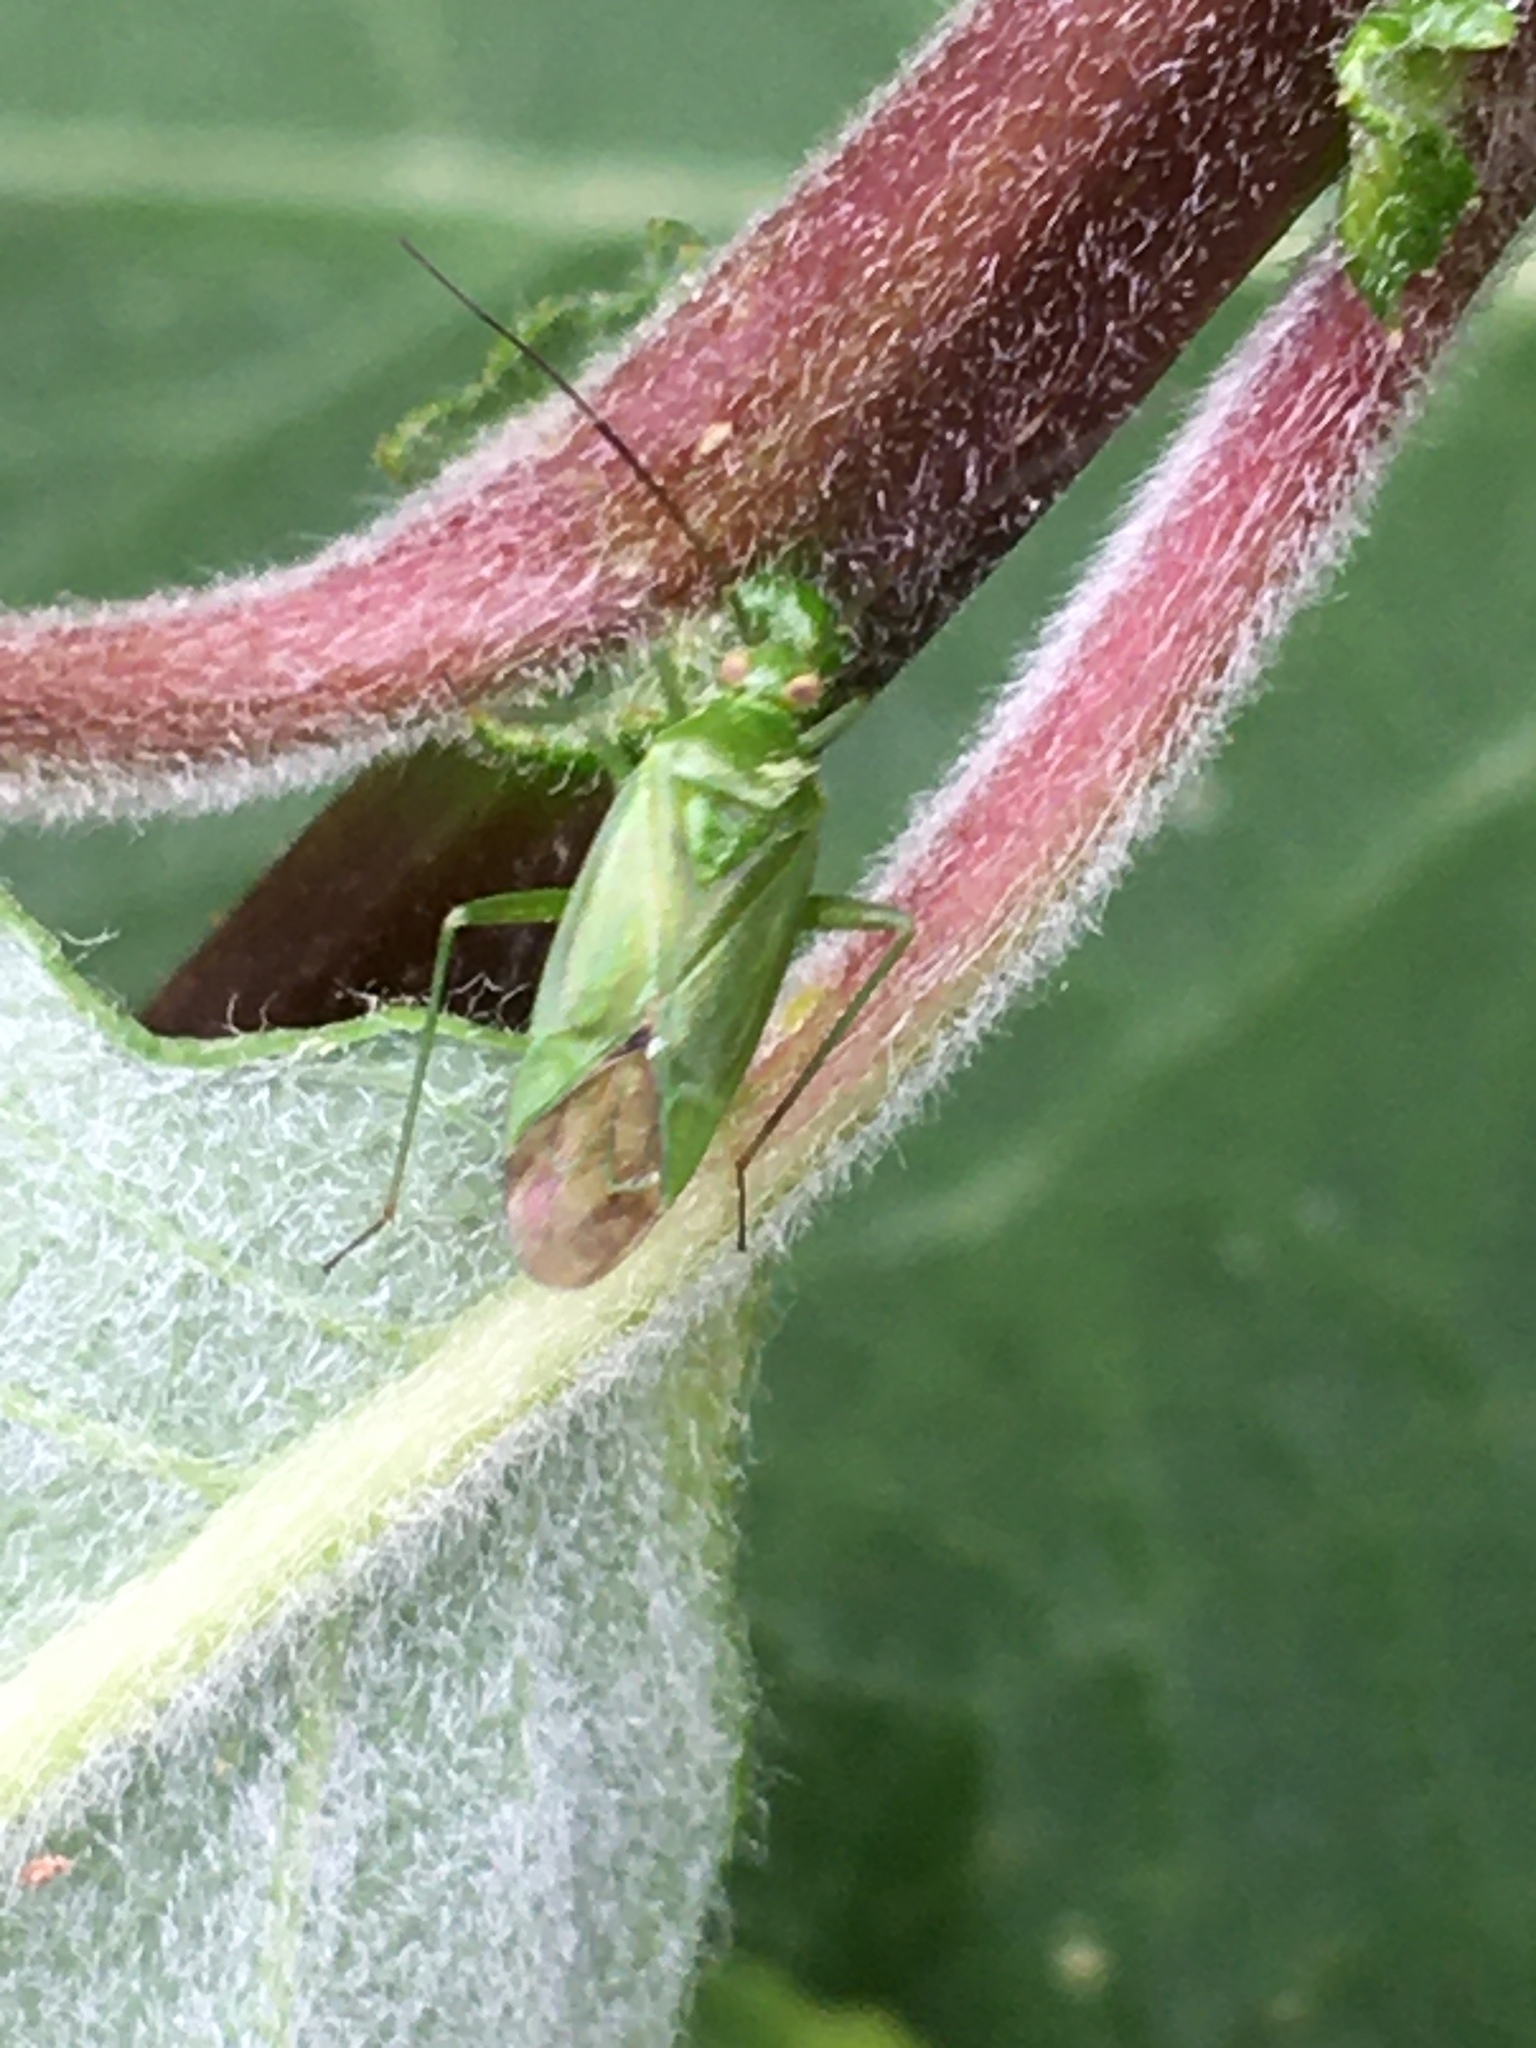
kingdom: Animalia
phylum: Arthropoda
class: Insecta
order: Hemiptera
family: Miridae
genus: Lygocoris
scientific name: Lygocoris pabulinus
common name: Common green capsid
